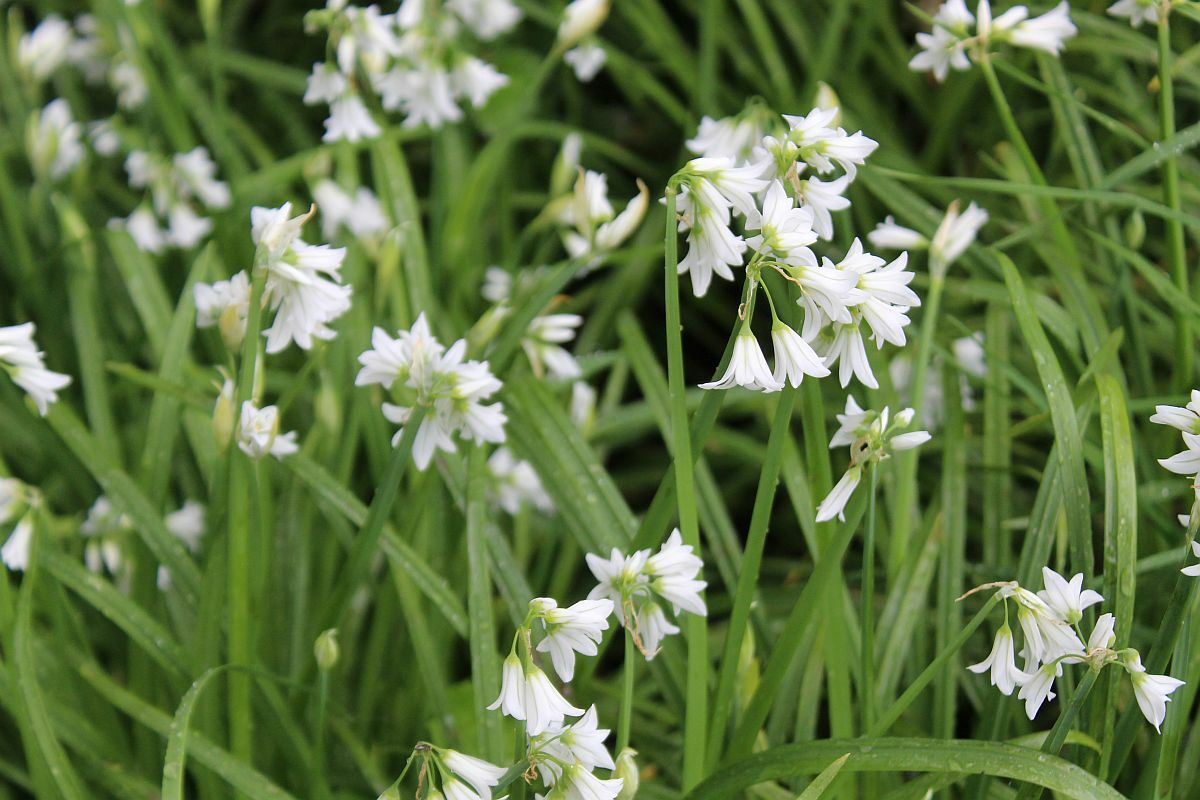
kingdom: Plantae
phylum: Tracheophyta
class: Liliopsida
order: Asparagales
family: Amaryllidaceae
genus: Allium
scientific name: Allium triquetrum
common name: Three-cornered garlic
